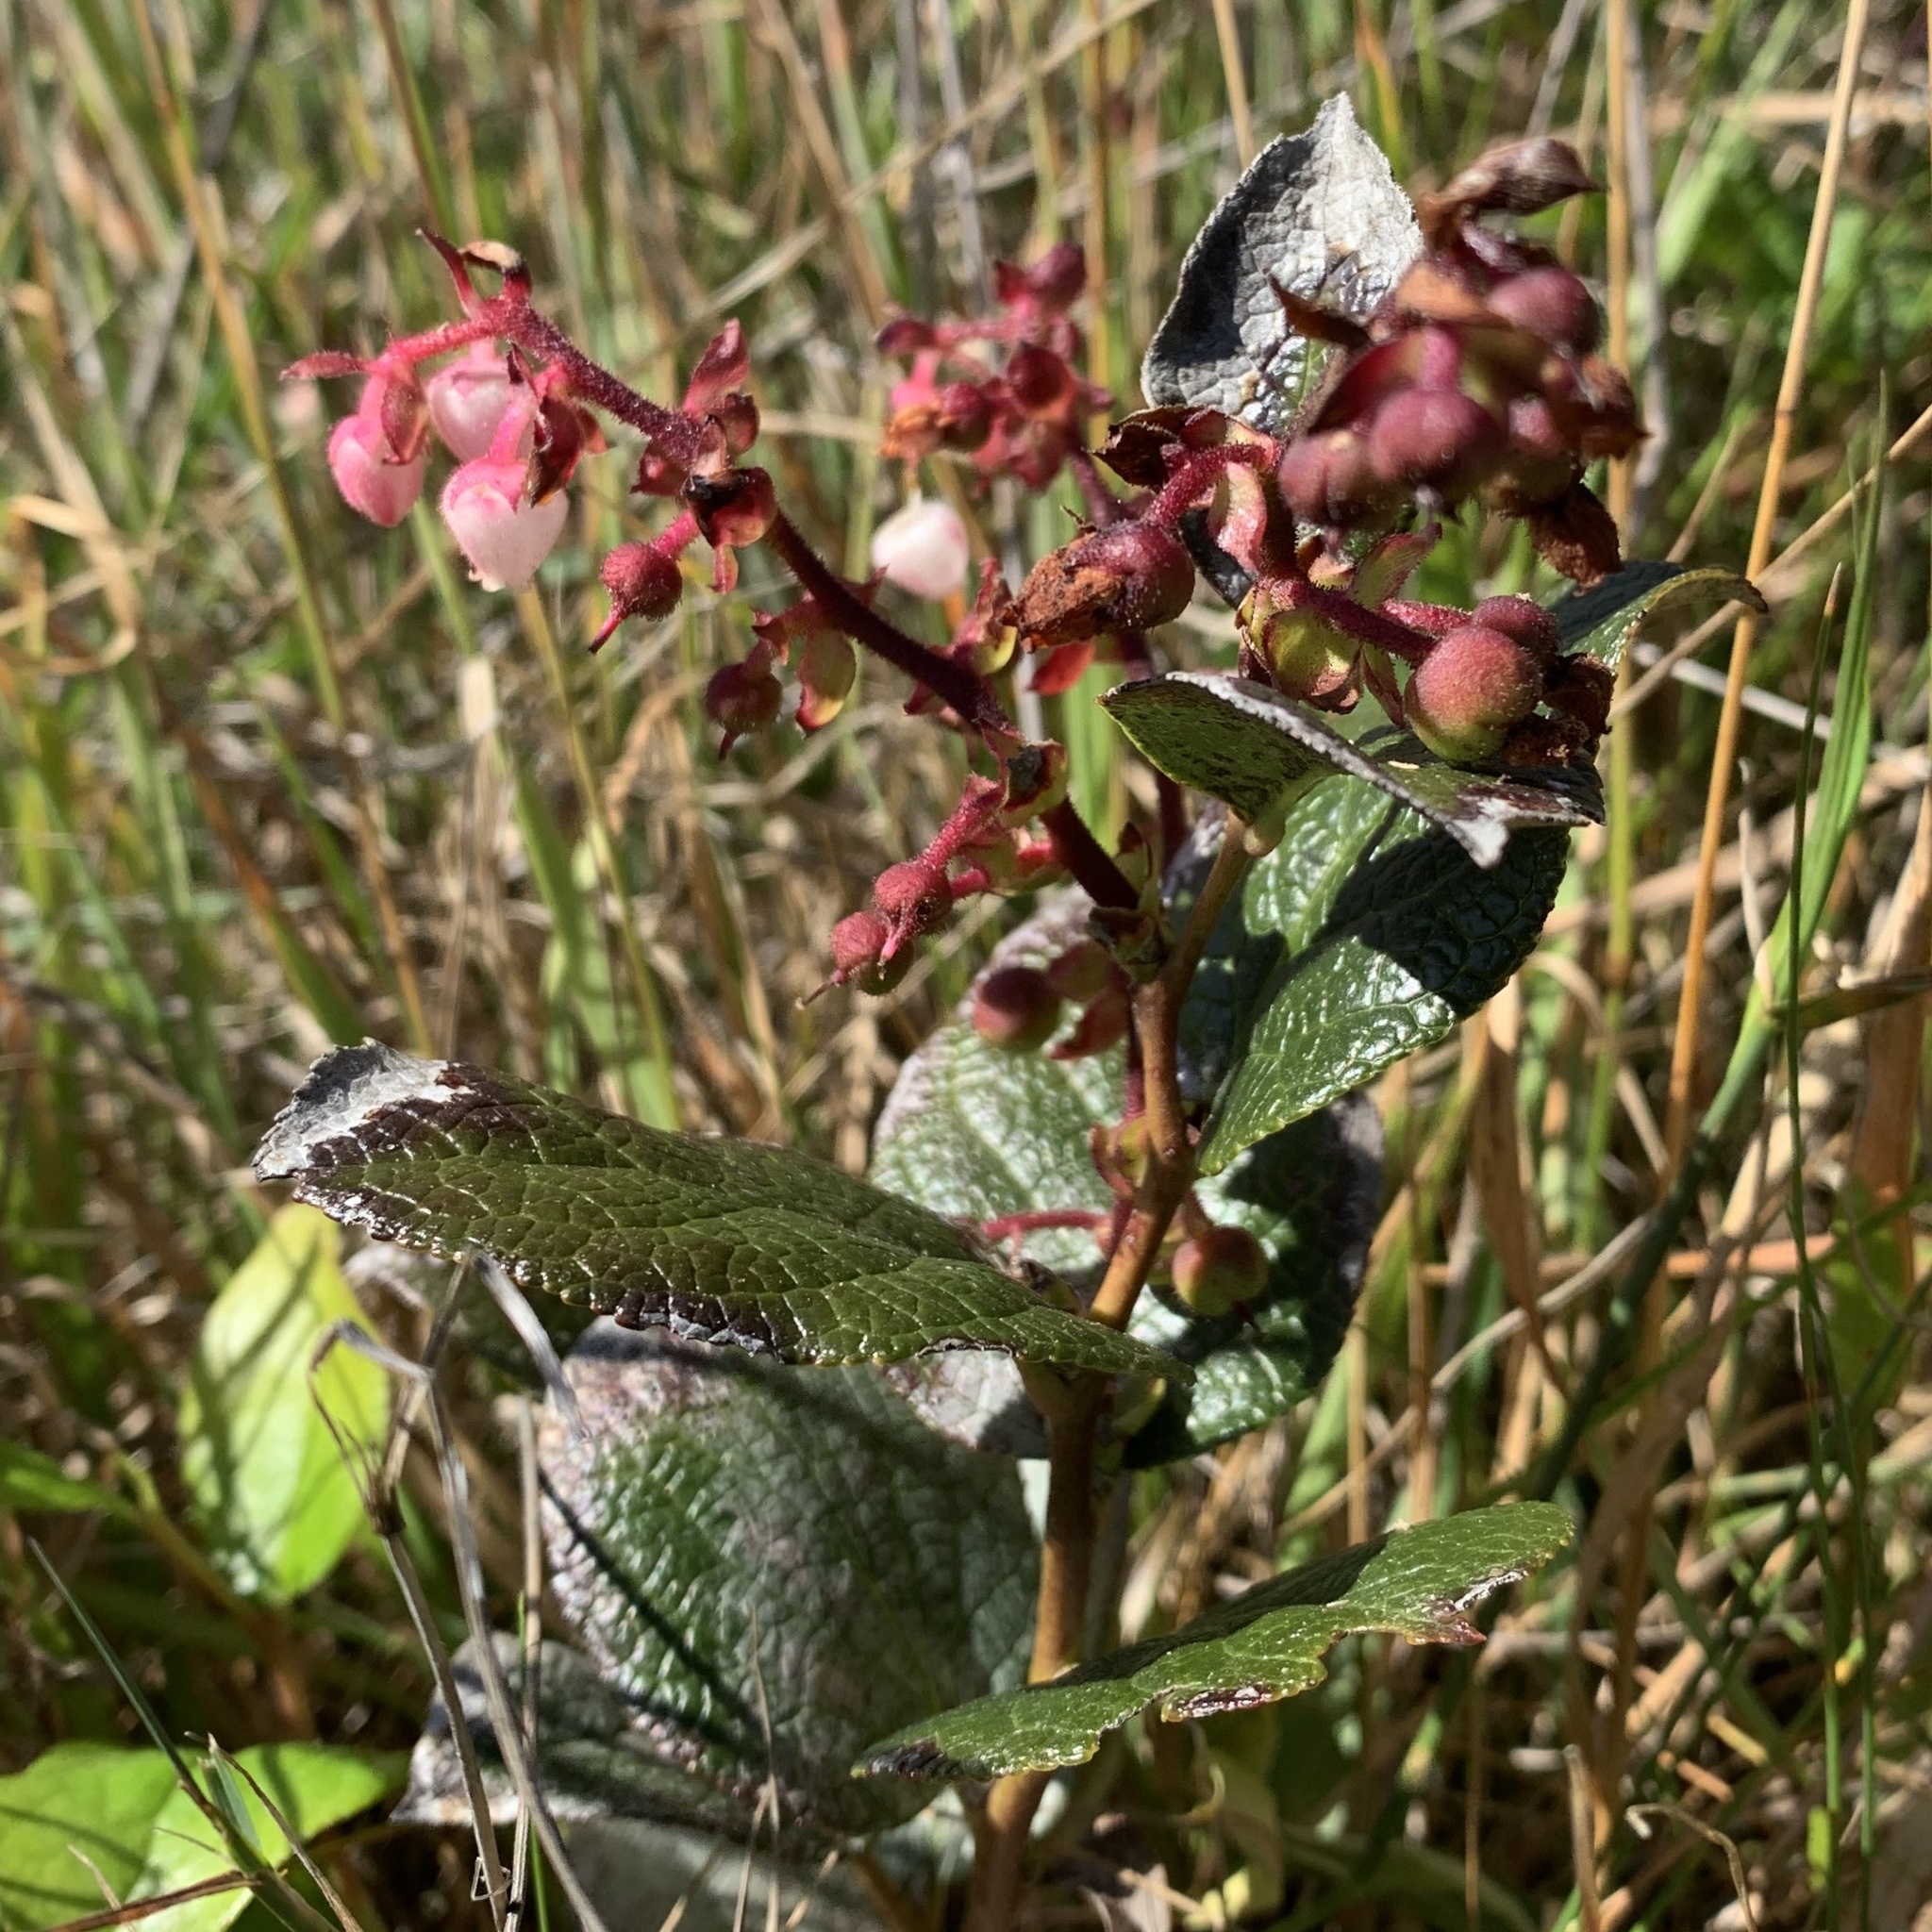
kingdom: Plantae
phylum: Tracheophyta
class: Magnoliopsida
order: Ericales
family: Ericaceae
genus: Gaultheria
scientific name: Gaultheria shallon
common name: Shallon
